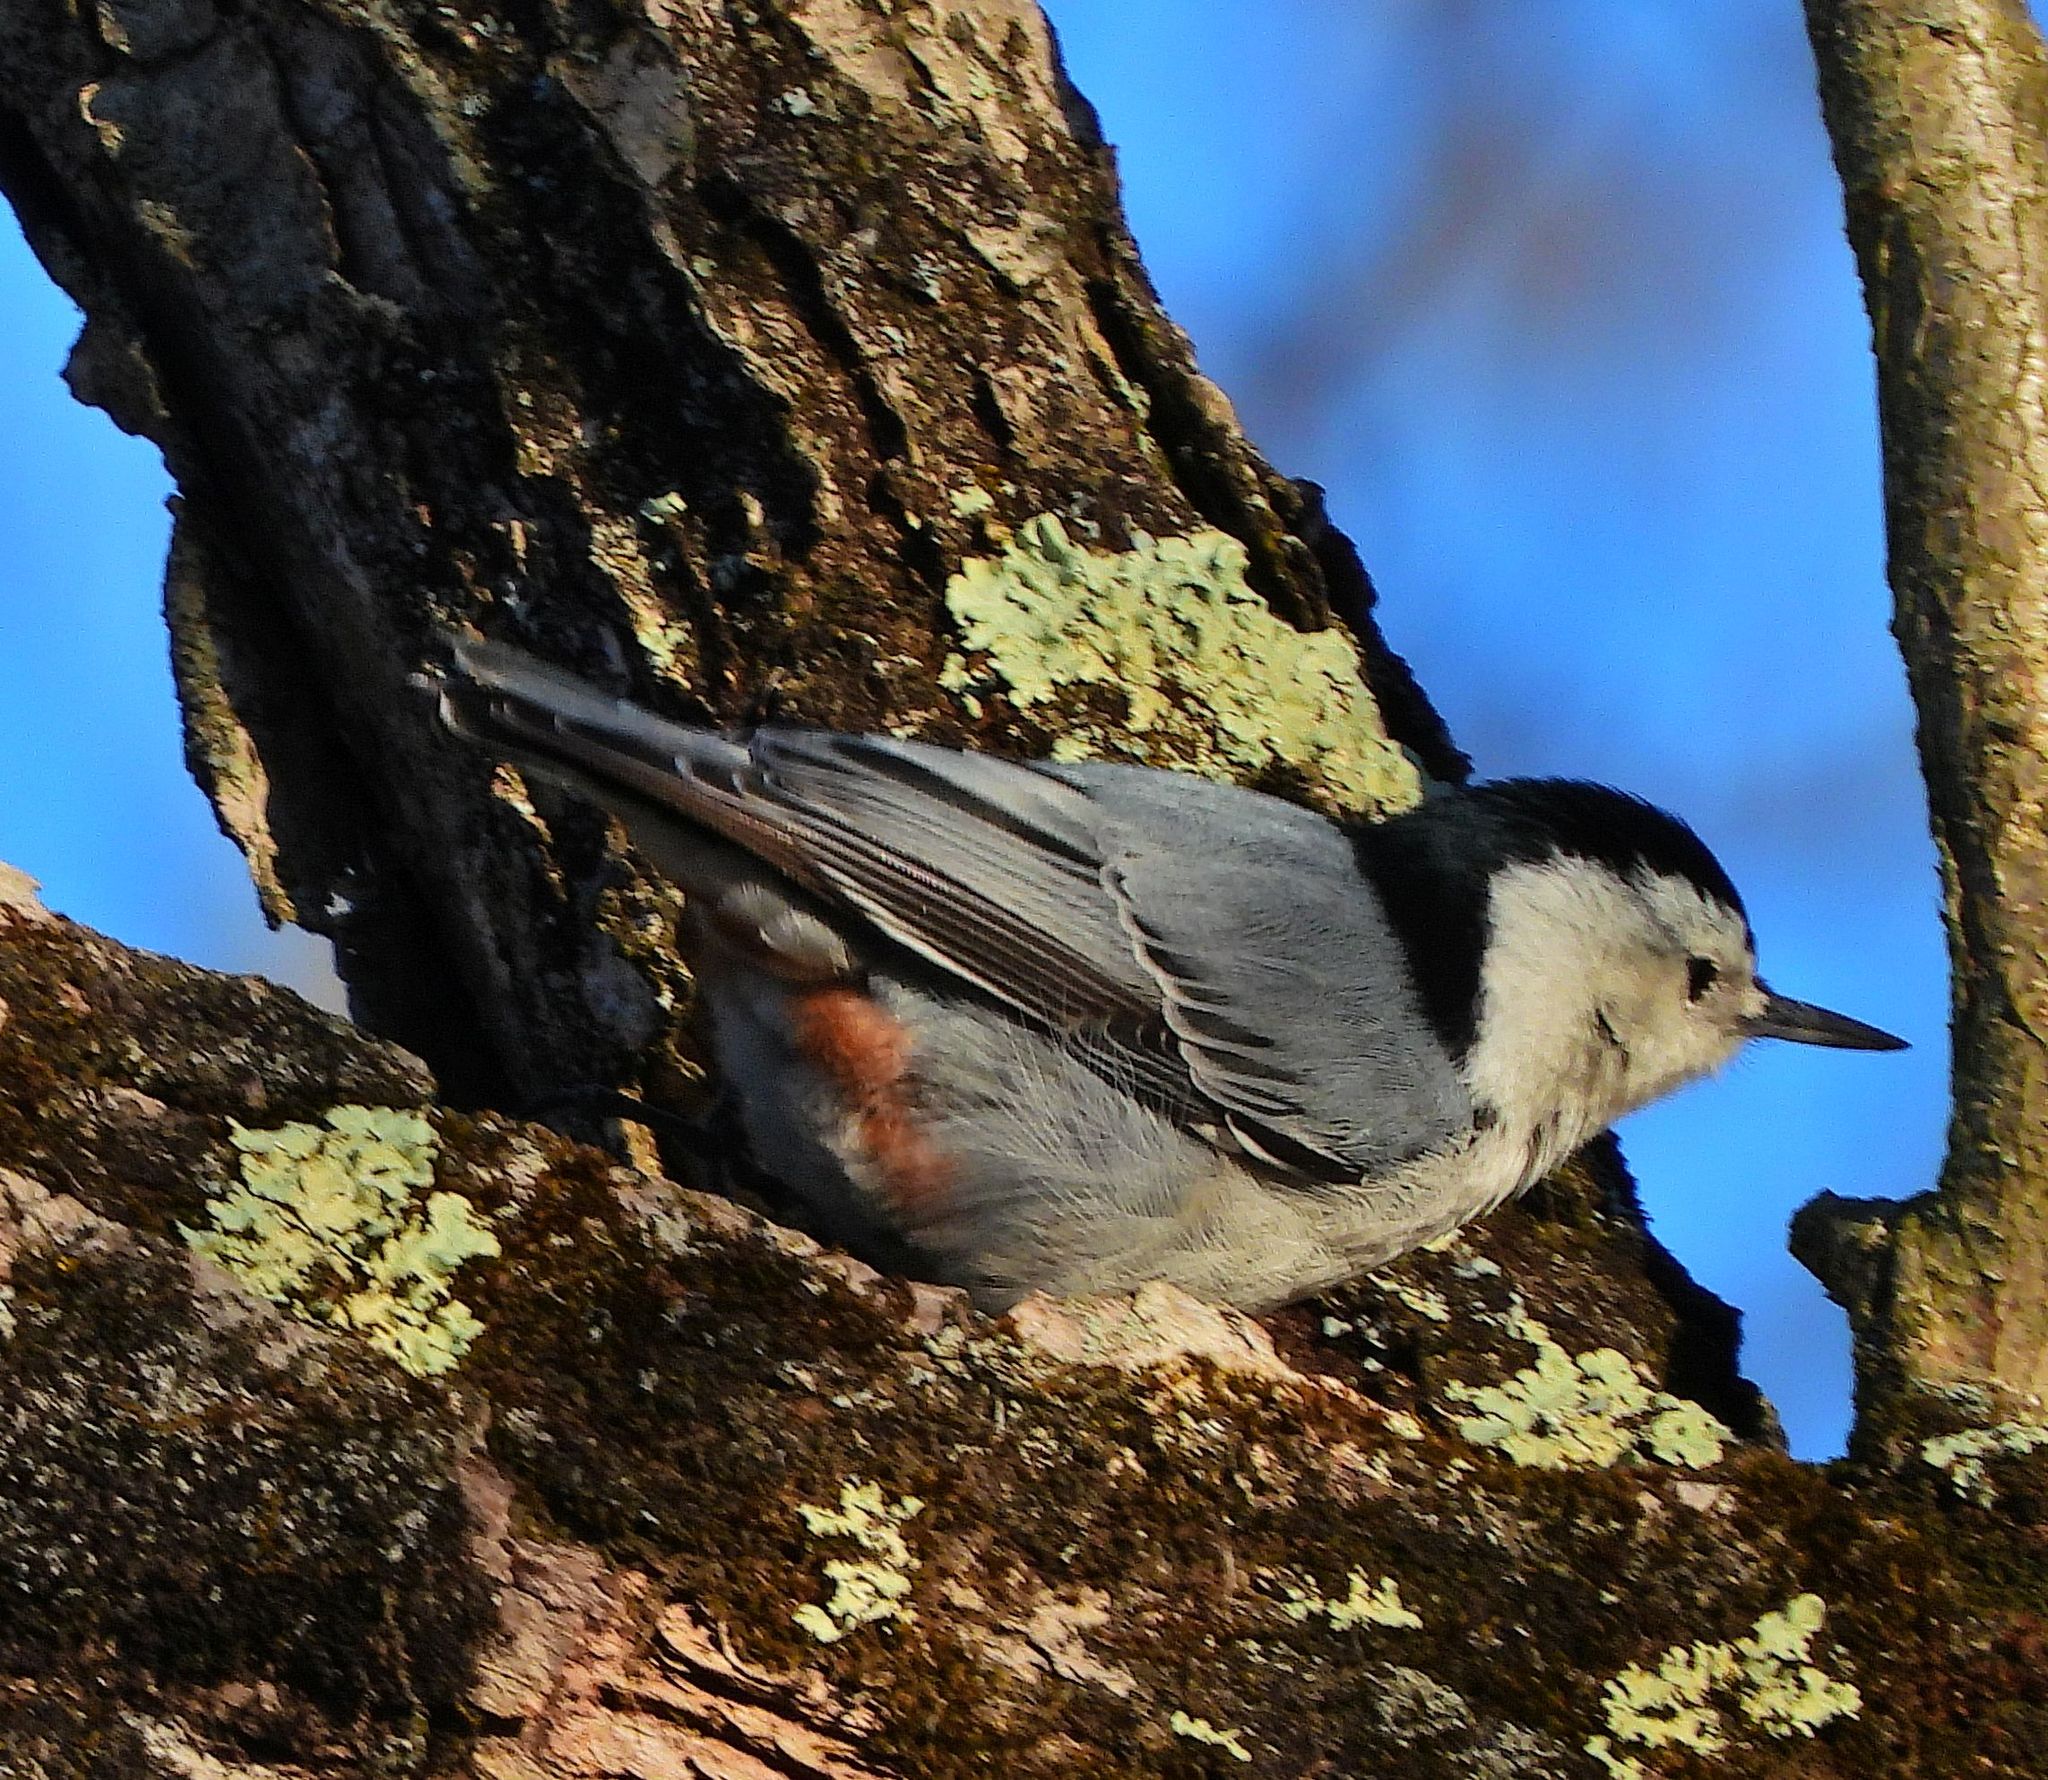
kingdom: Animalia
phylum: Chordata
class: Aves
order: Passeriformes
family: Sittidae
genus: Sitta
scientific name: Sitta carolinensis
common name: White-breasted nuthatch
